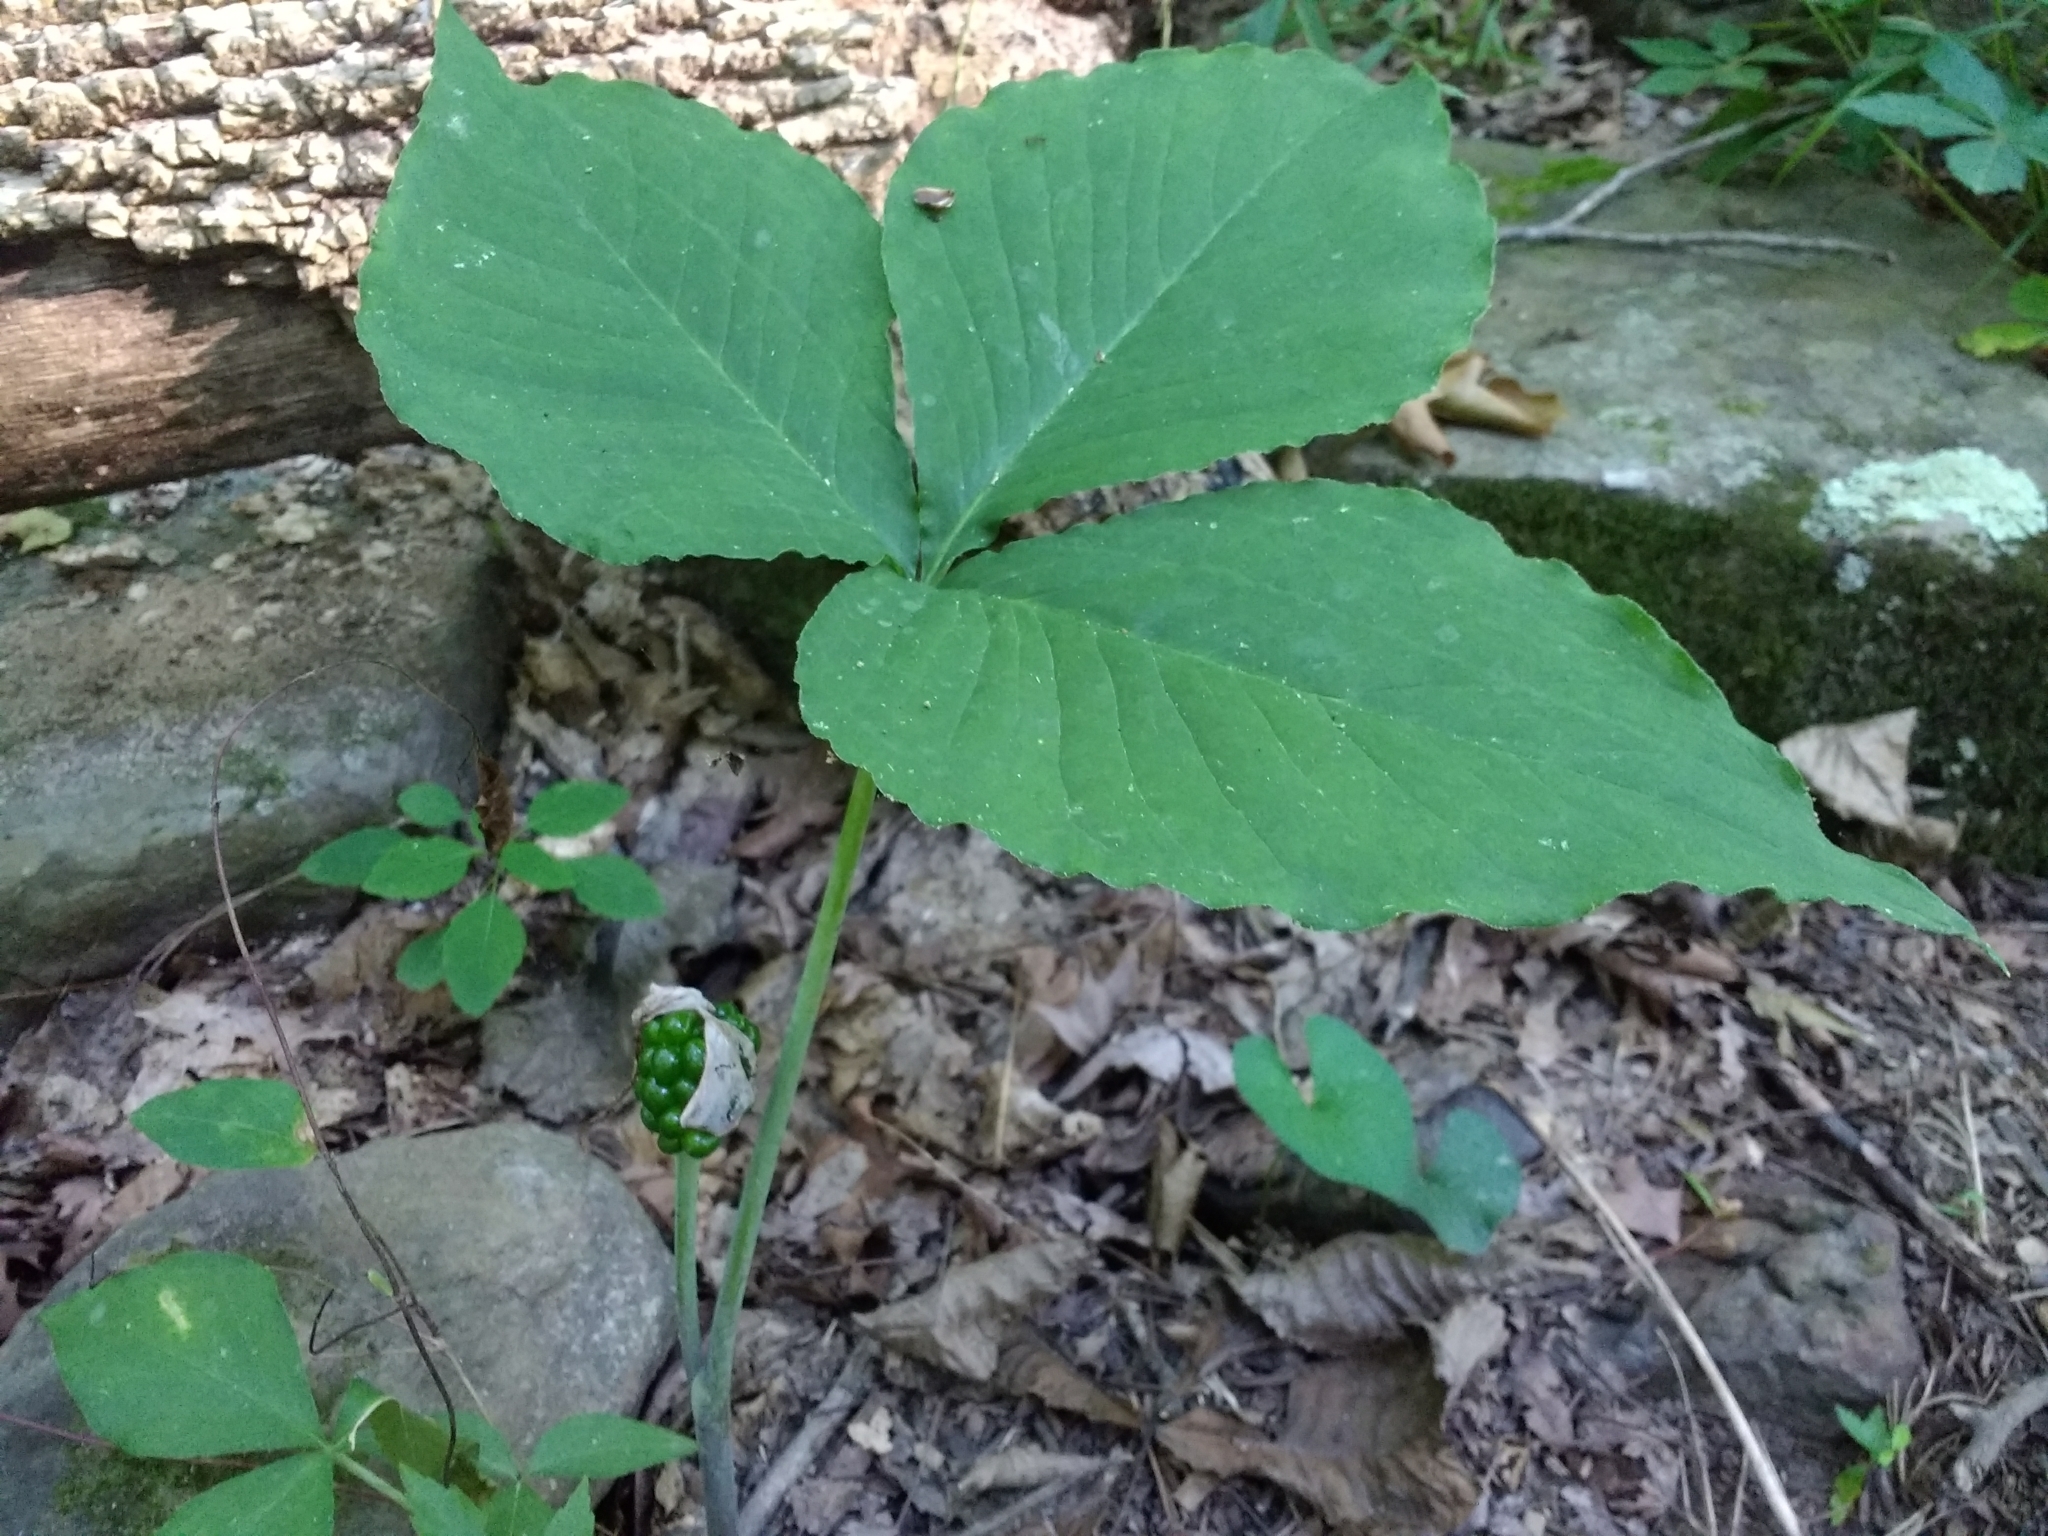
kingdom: Plantae
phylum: Tracheophyta
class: Liliopsida
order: Alismatales
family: Araceae
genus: Arisaema
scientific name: Arisaema triphyllum
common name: Jack-in-the-pulpit
